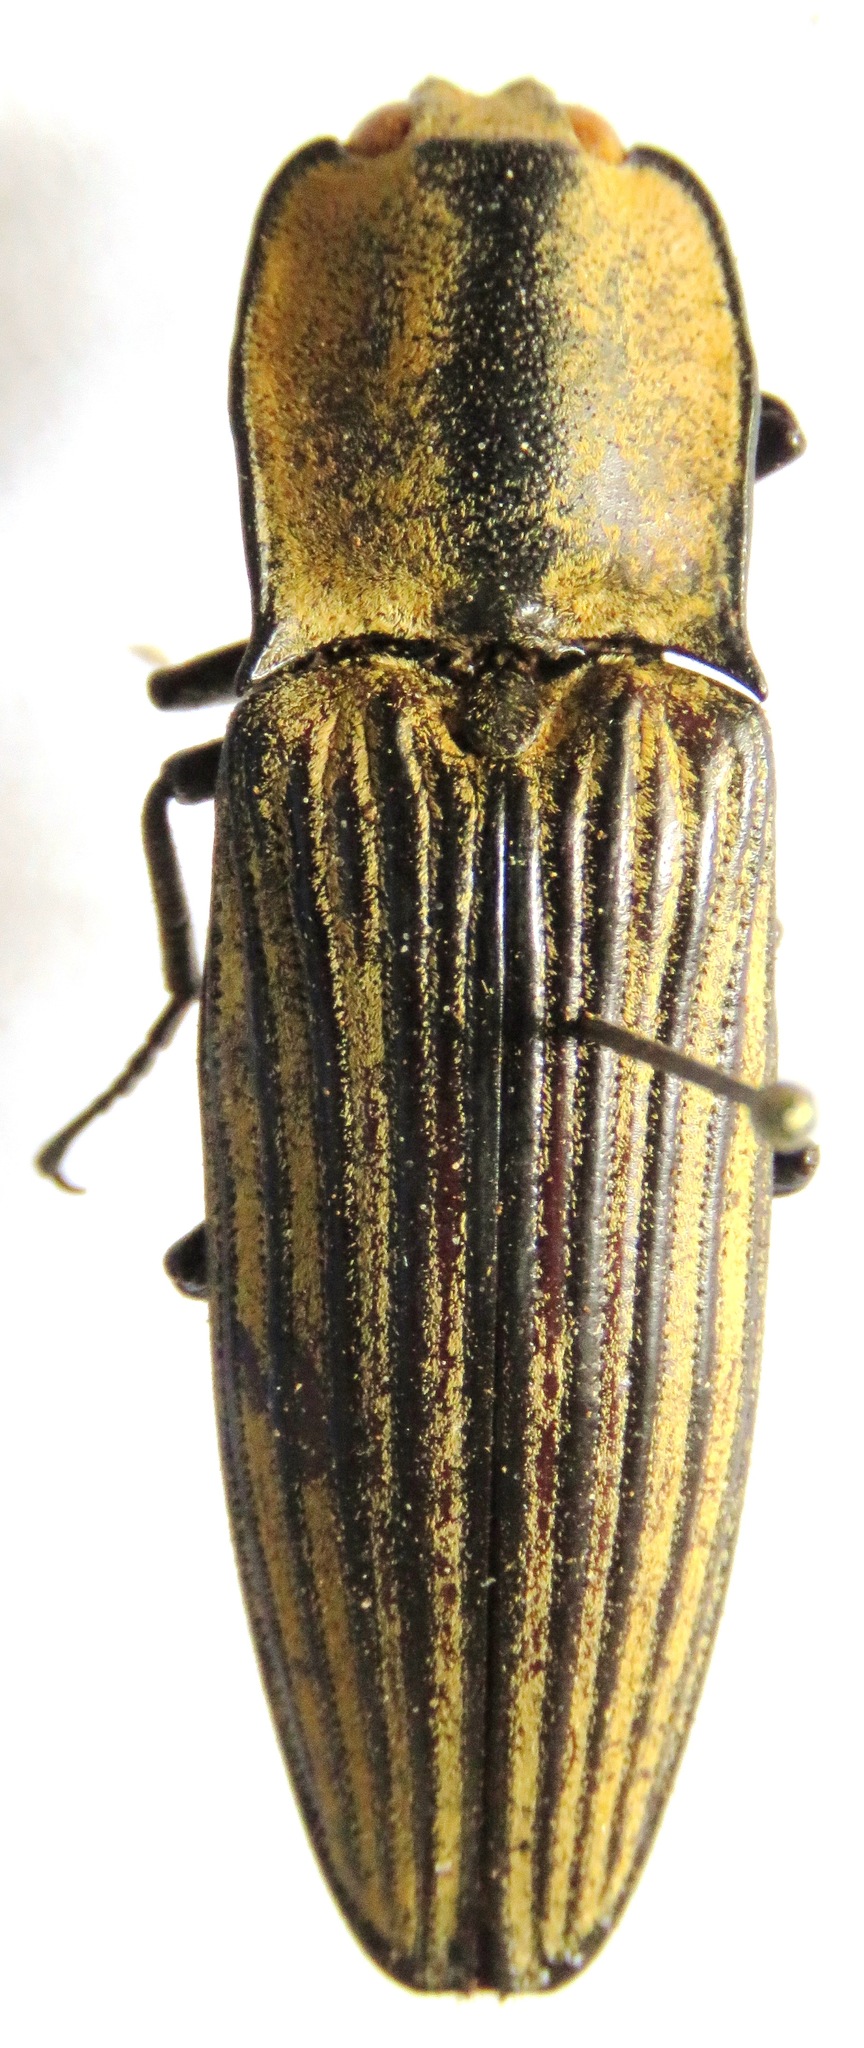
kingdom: Animalia
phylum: Arthropoda
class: Insecta
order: Coleoptera
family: Elateridae
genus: Alaus
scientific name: Alaus
